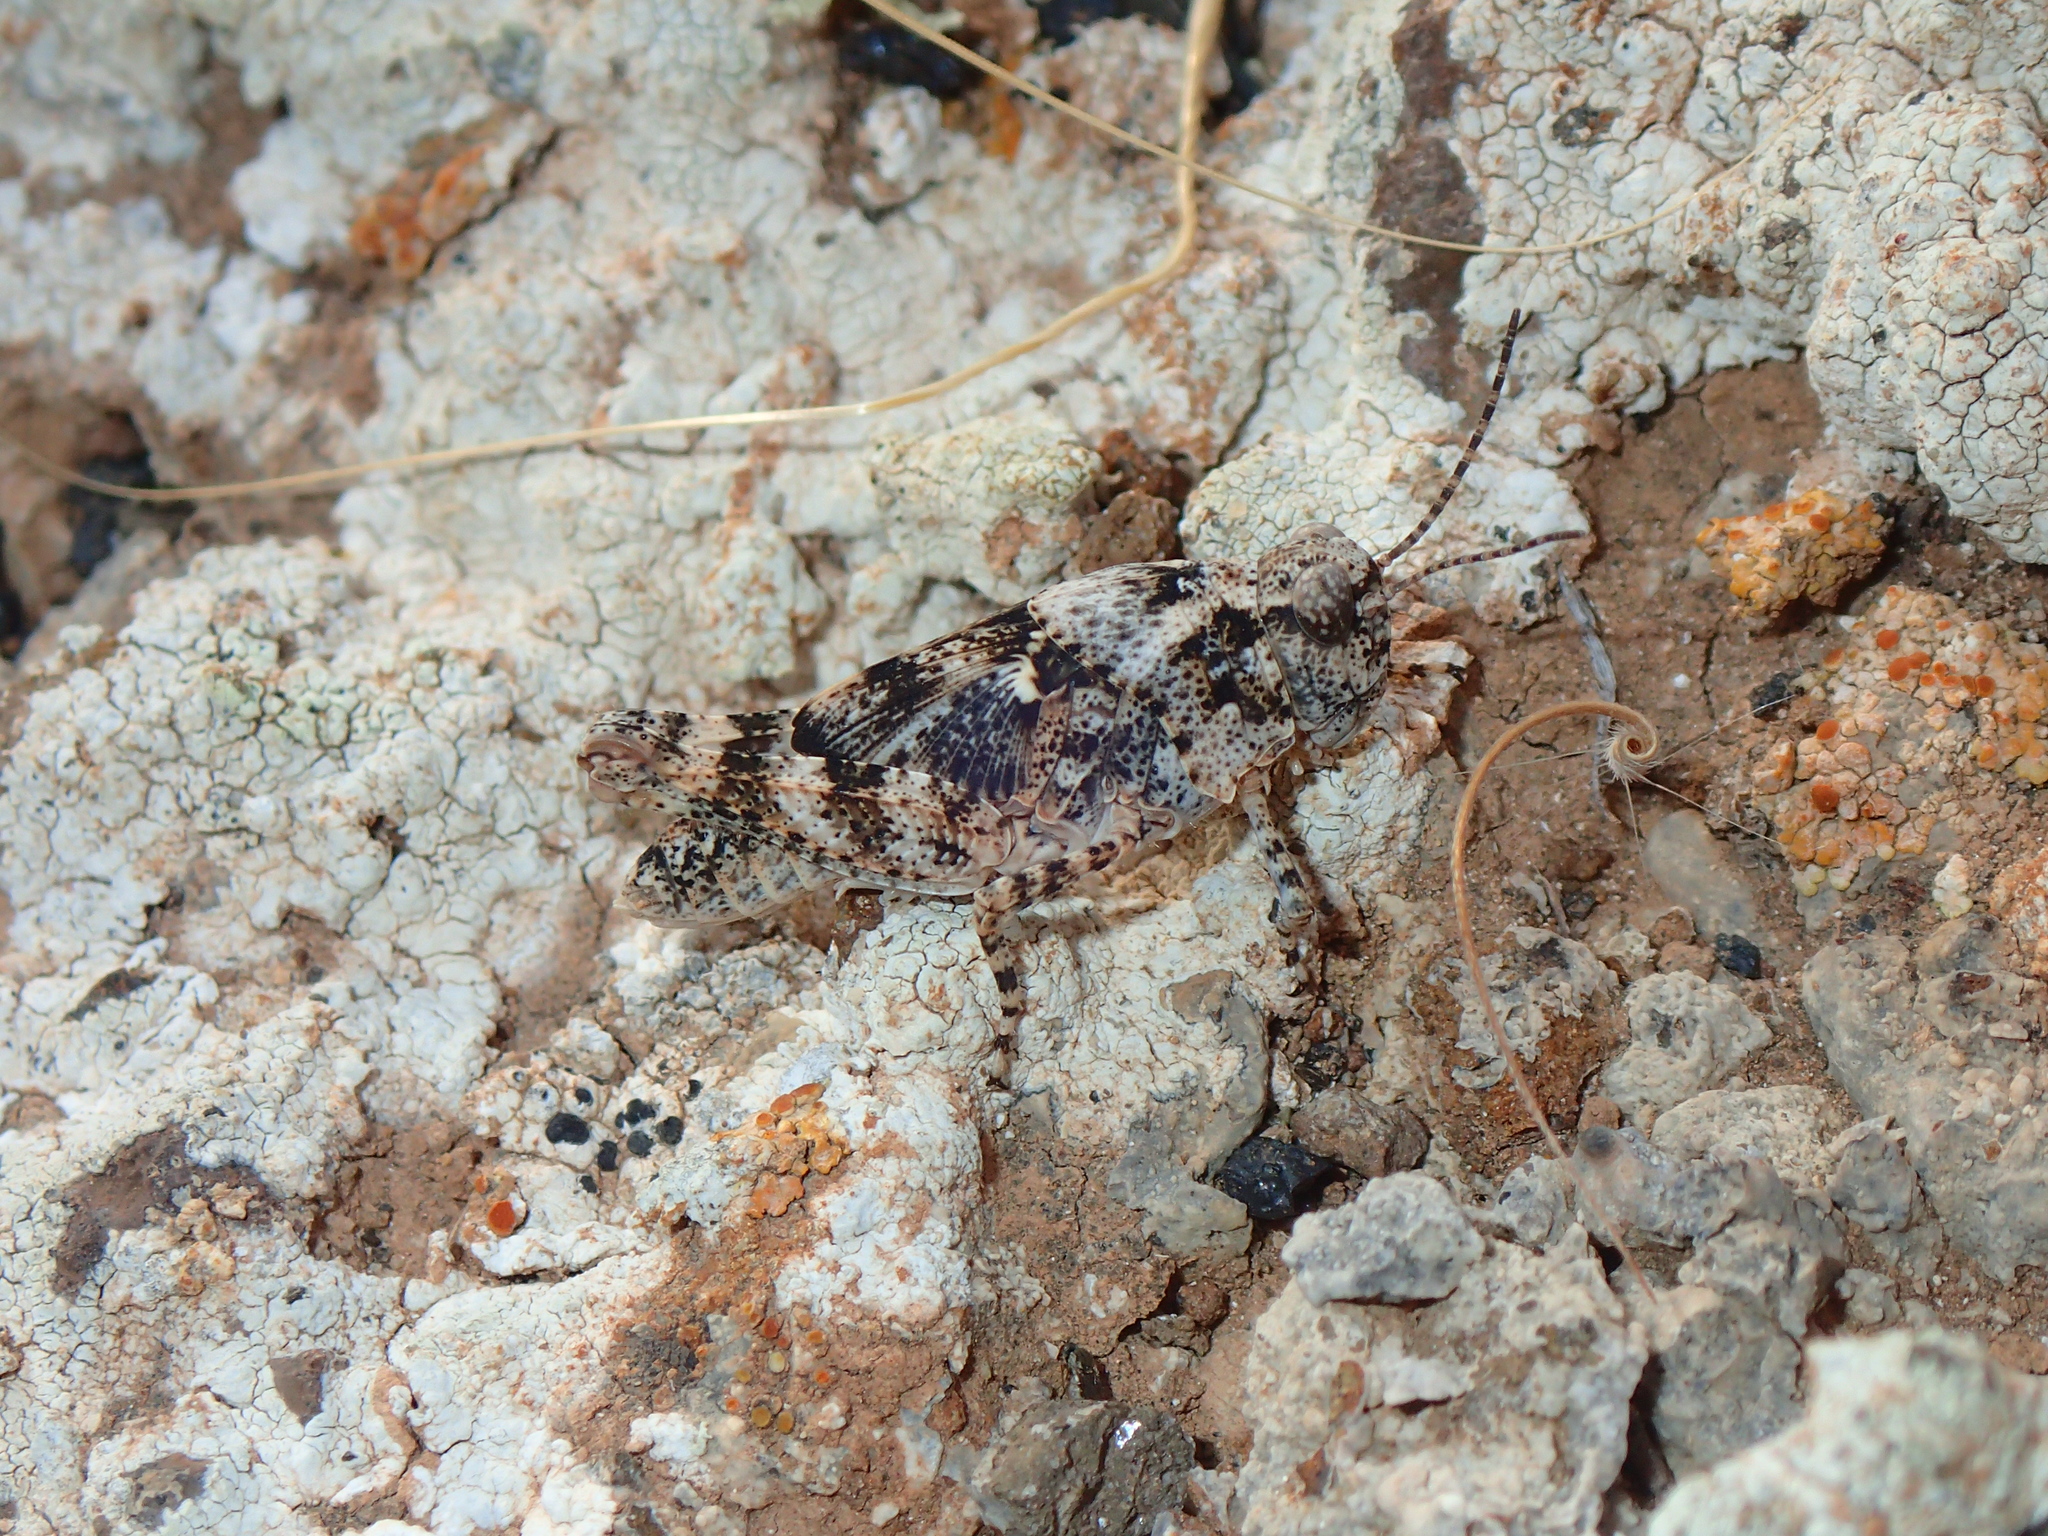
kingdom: Animalia
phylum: Arthropoda
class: Insecta
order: Orthoptera
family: Acrididae
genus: Sphingonotus
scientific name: Sphingonotus pachecoi
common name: Lanzarote sand grasshopper
